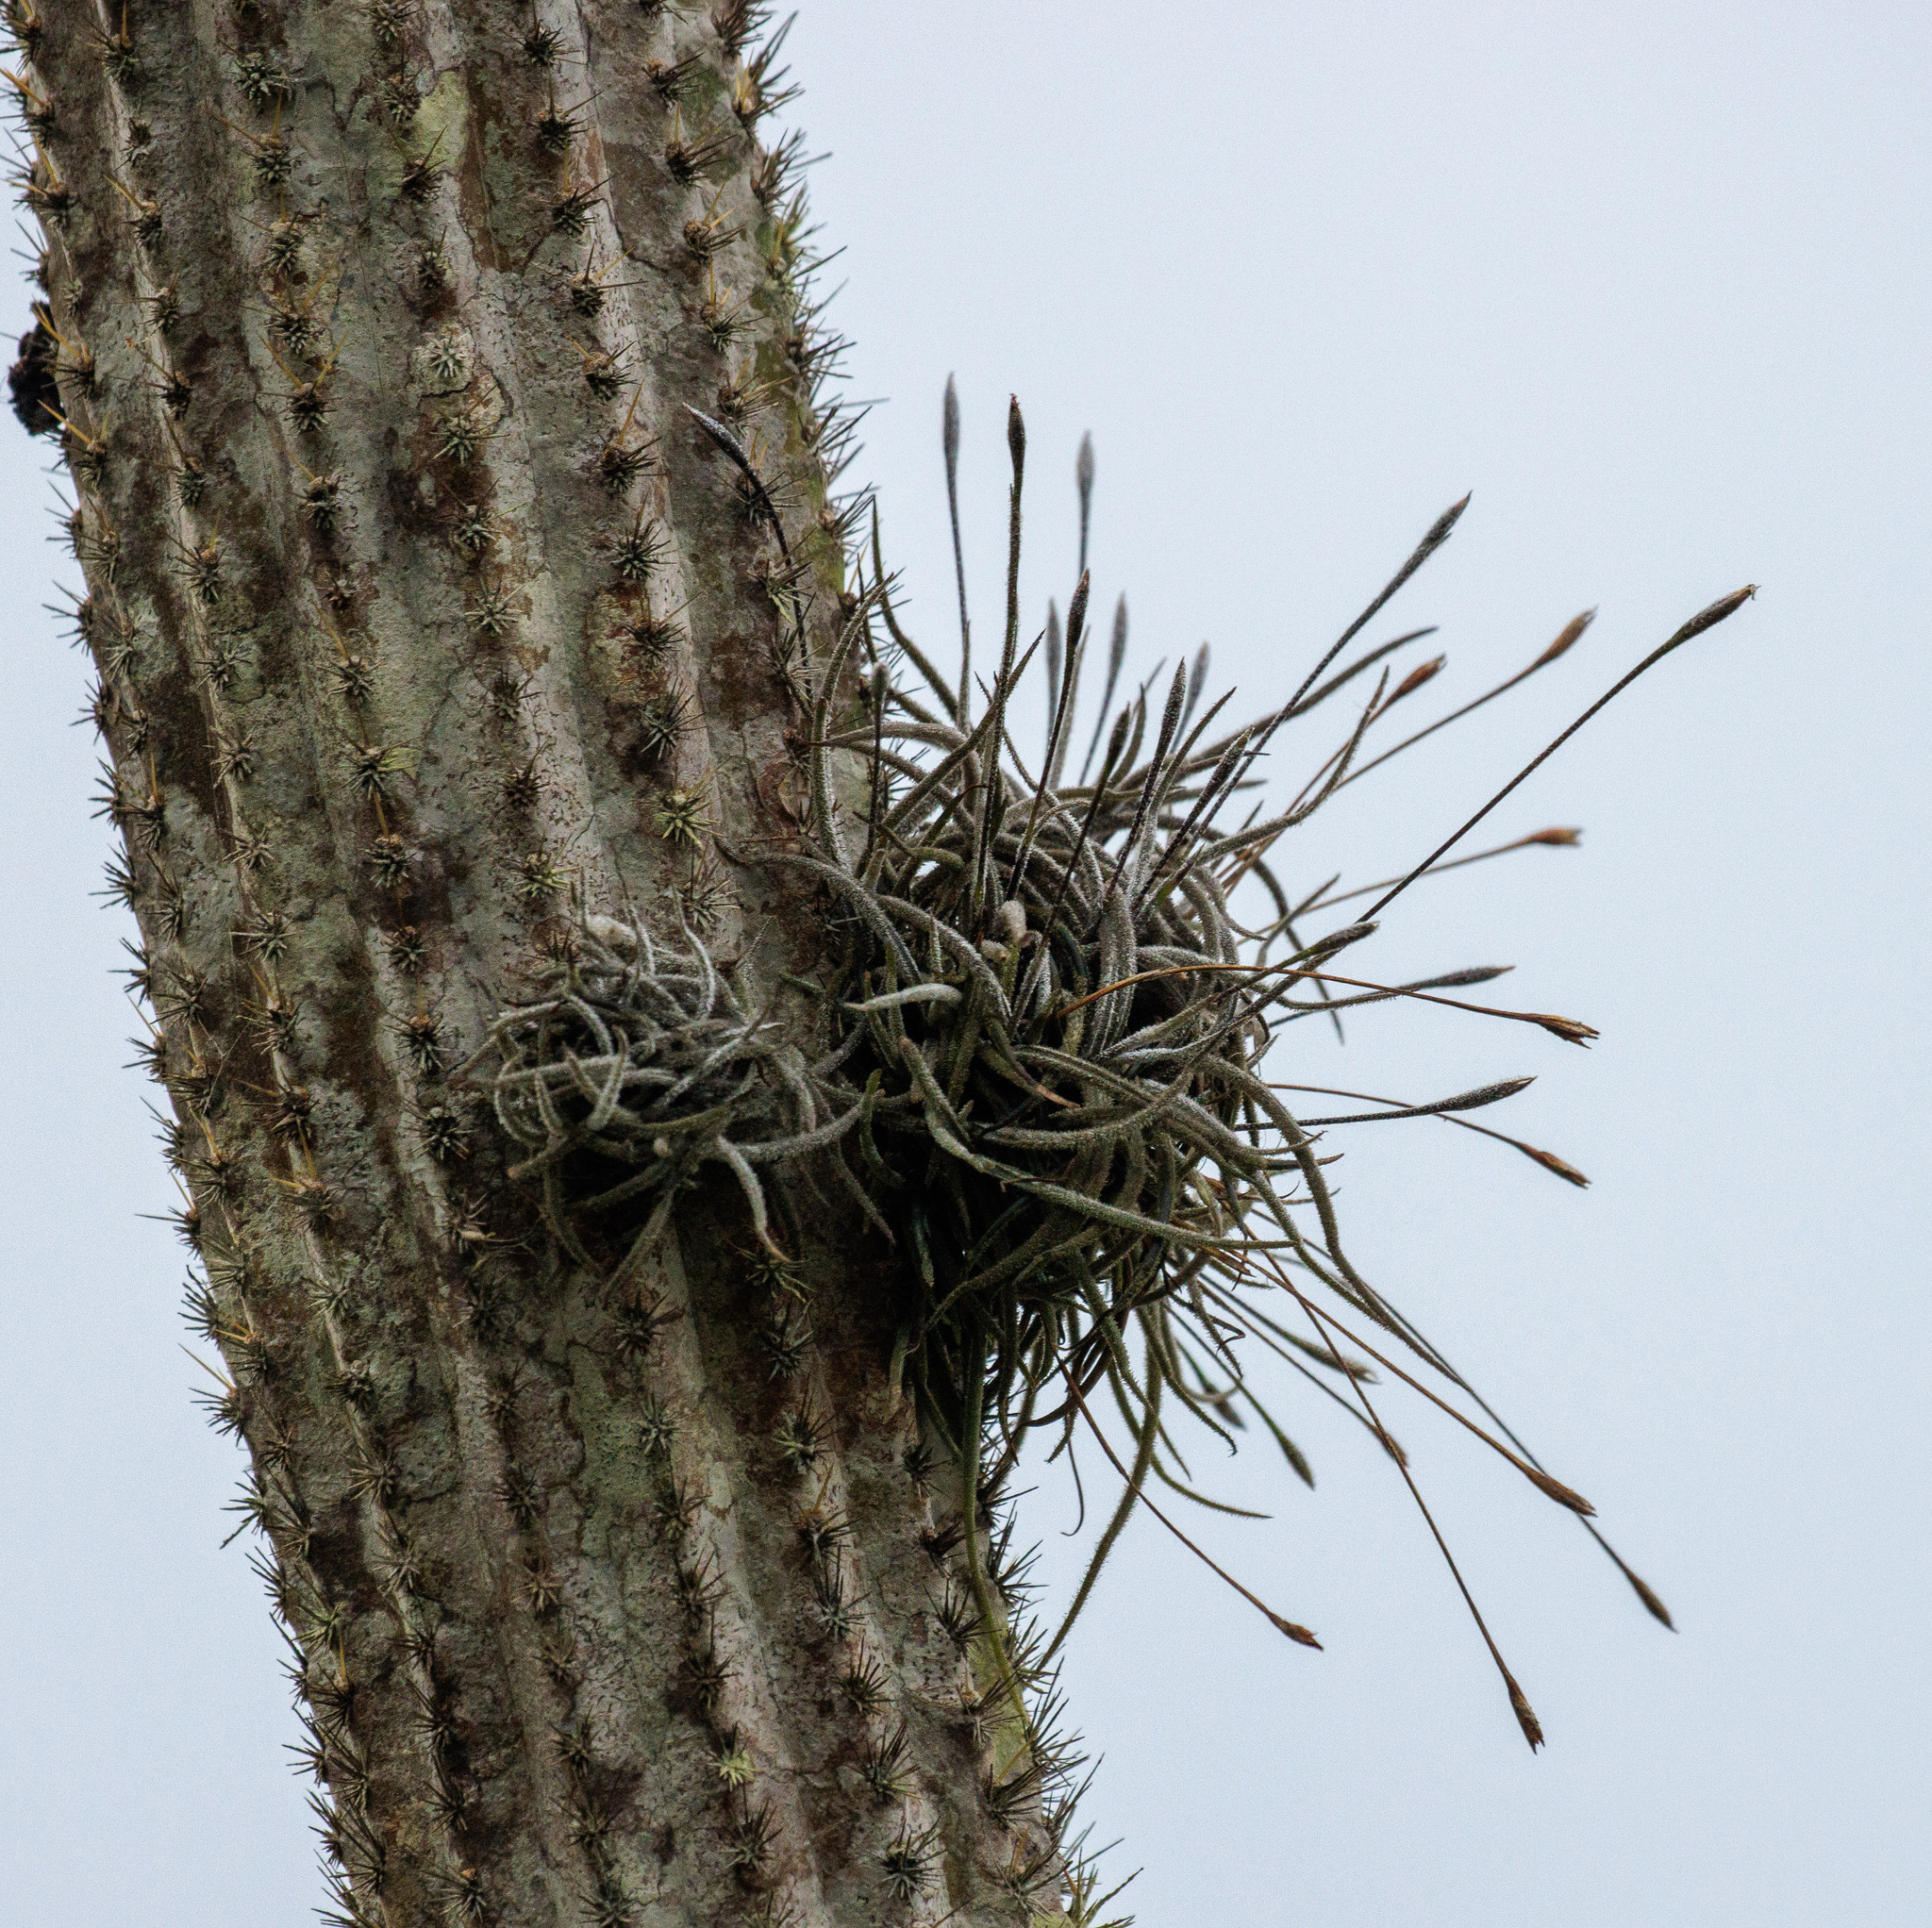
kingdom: Plantae
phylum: Tracheophyta
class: Liliopsida
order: Poales
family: Bromeliaceae
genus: Tillandsia
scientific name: Tillandsia recurvata
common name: Small ballmoss
